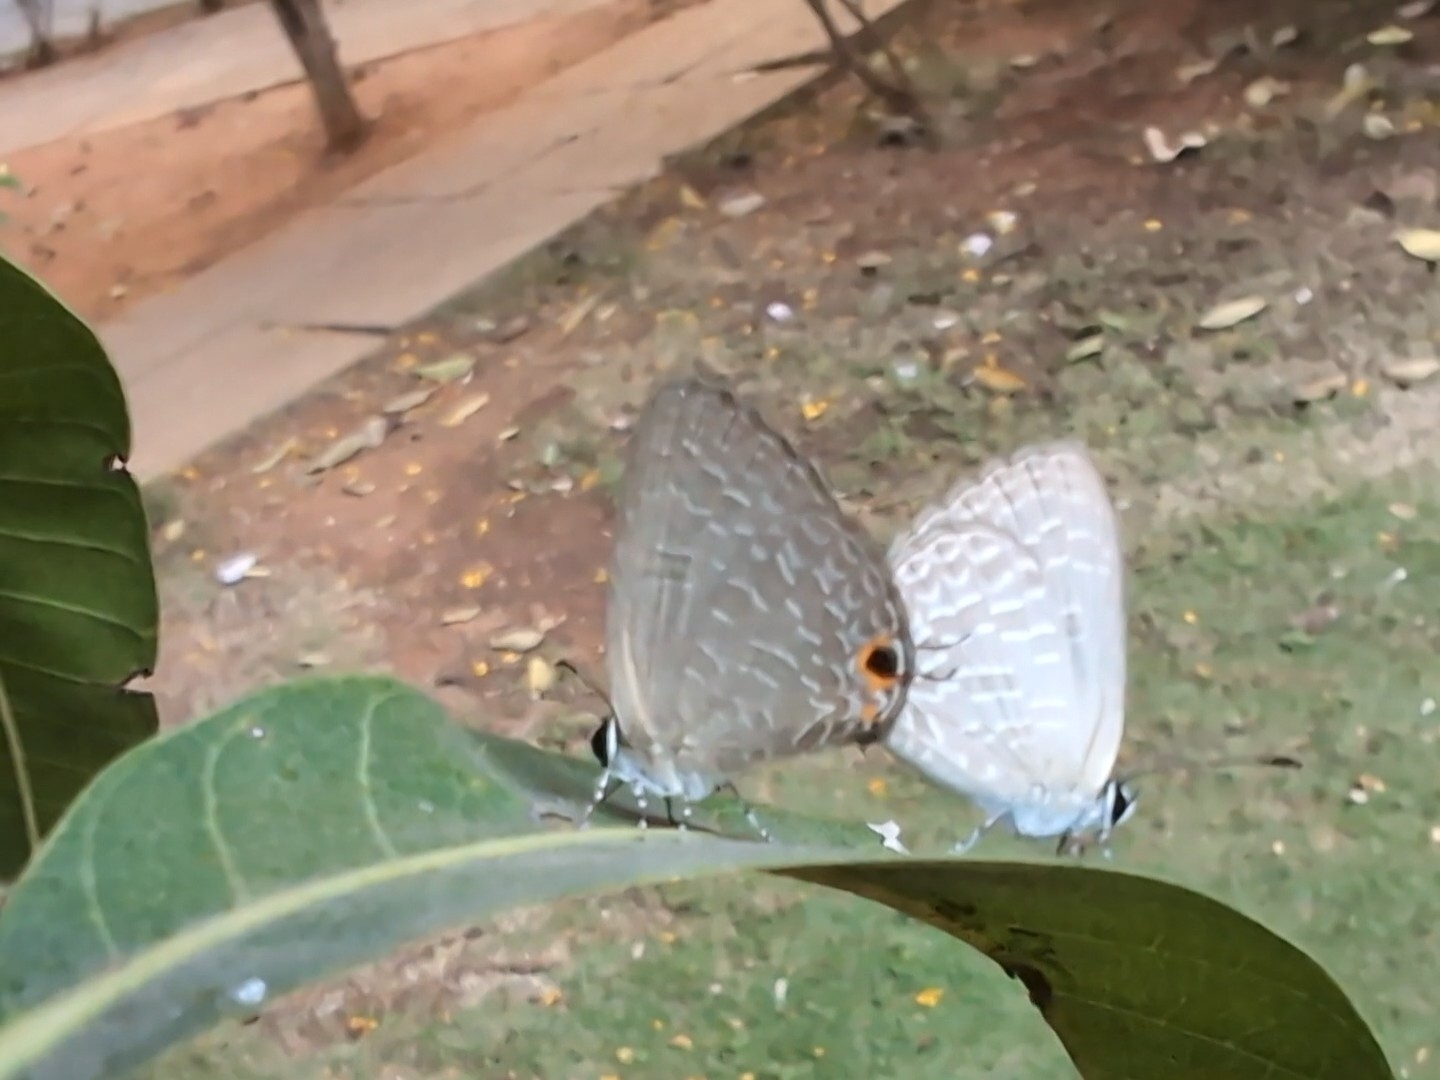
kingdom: Animalia
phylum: Arthropoda
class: Insecta
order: Lepidoptera
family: Lycaenidae
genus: Jamides
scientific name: Jamides bochus
